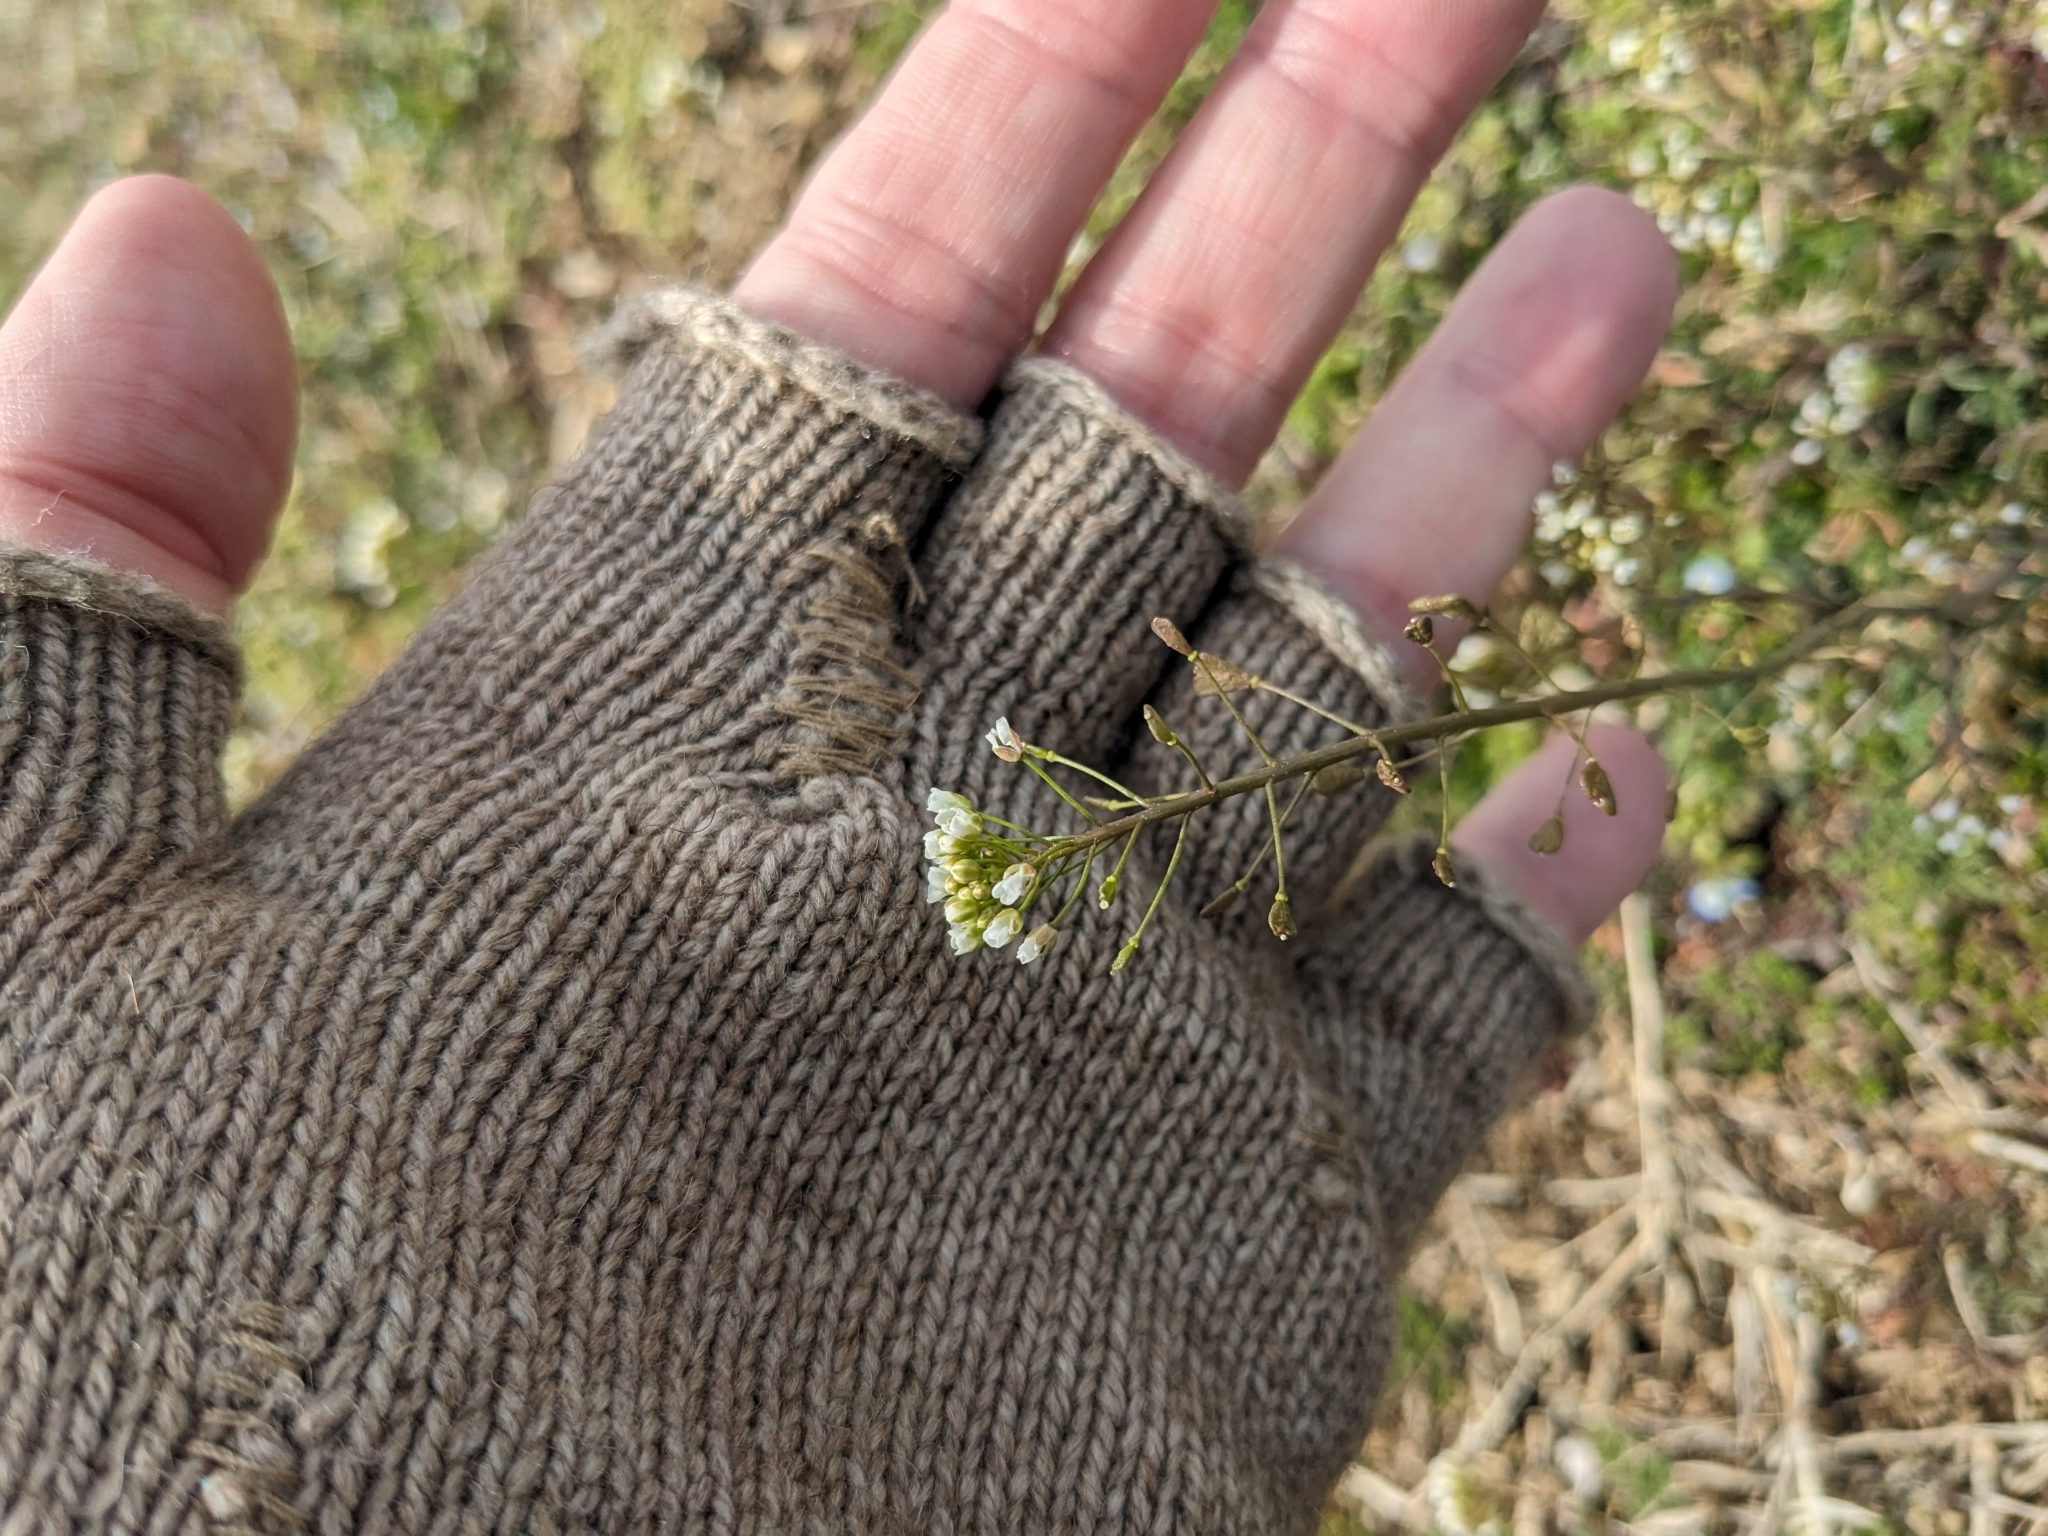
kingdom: Plantae
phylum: Tracheophyta
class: Magnoliopsida
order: Brassicales
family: Brassicaceae
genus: Capsella
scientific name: Capsella bursa-pastoris
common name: Shepherd's purse
